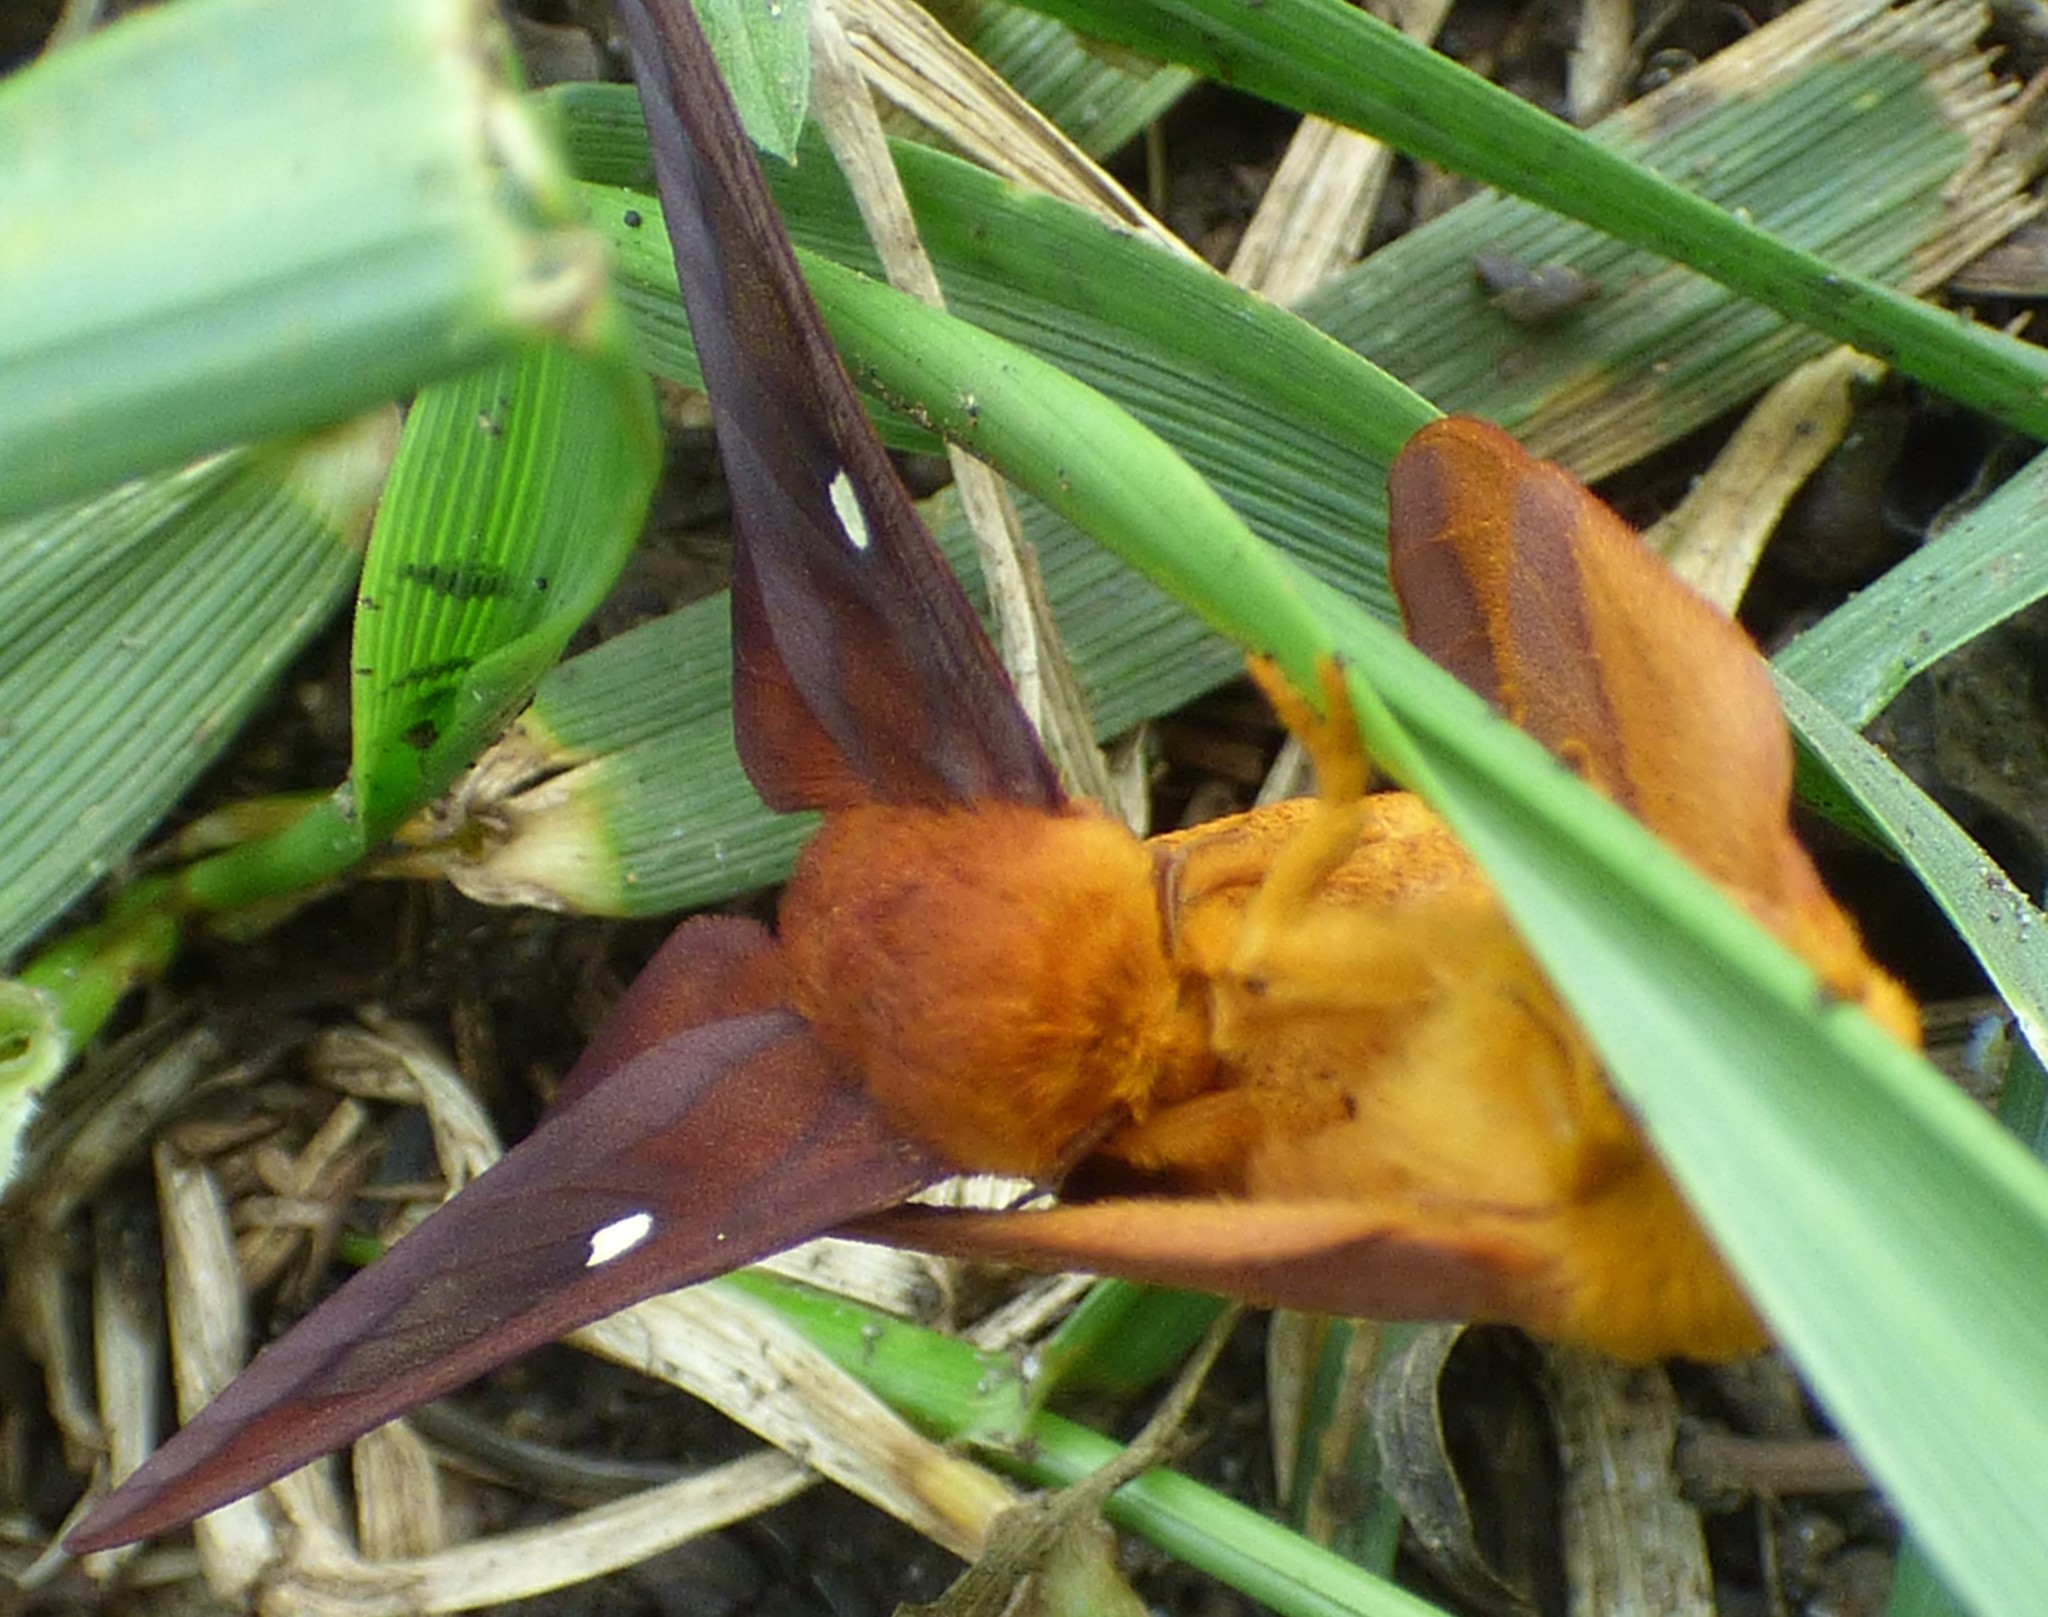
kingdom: Animalia
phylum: Arthropoda
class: Insecta
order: Lepidoptera
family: Saturniidae
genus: Anisota
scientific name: Anisota virginiensis
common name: Pink striped oakworm moth
